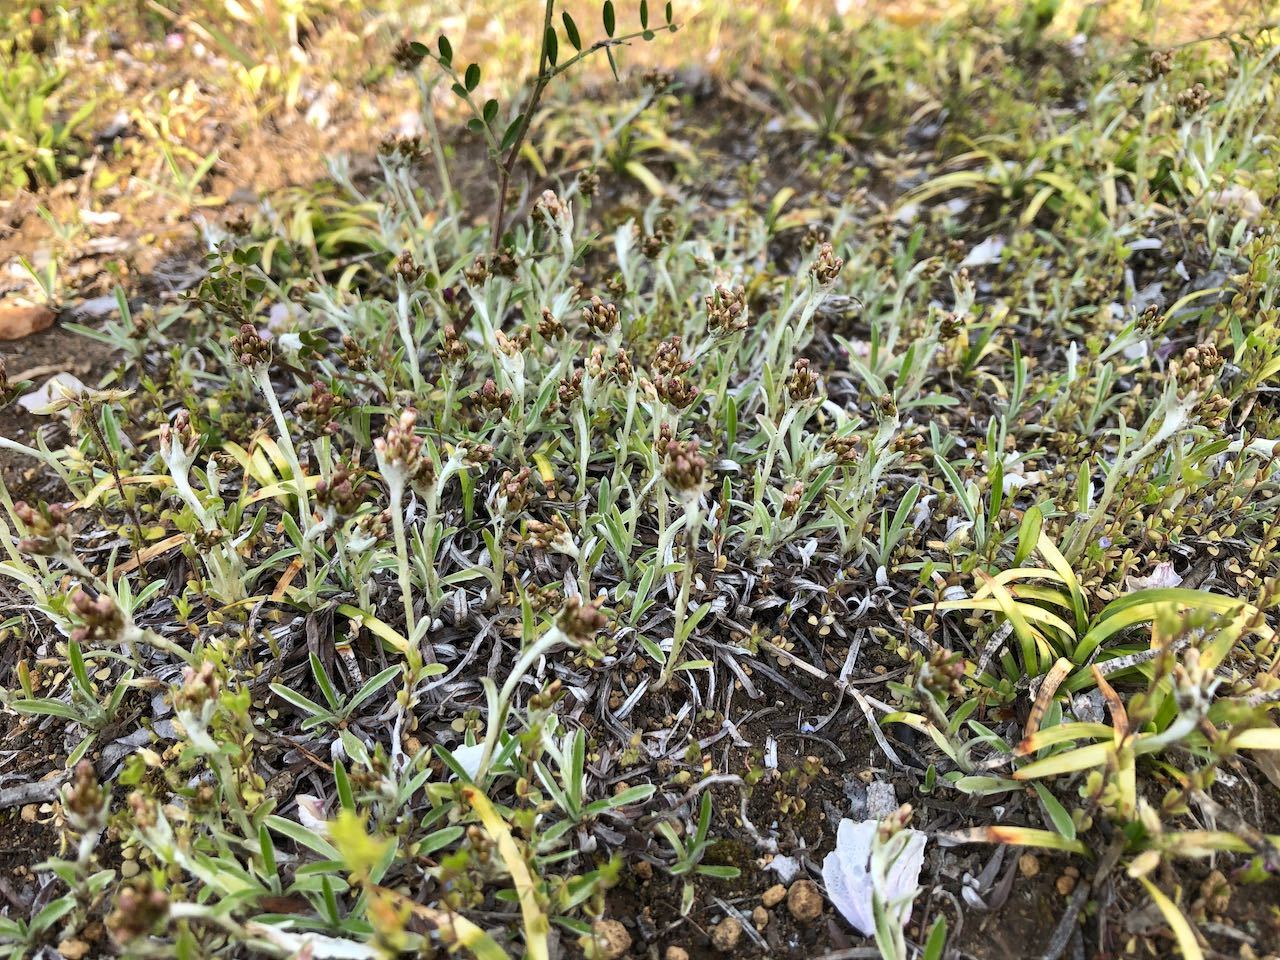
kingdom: Plantae
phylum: Tracheophyta
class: Magnoliopsida
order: Asterales
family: Asteraceae
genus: Euchiton
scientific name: Euchiton japonicus
